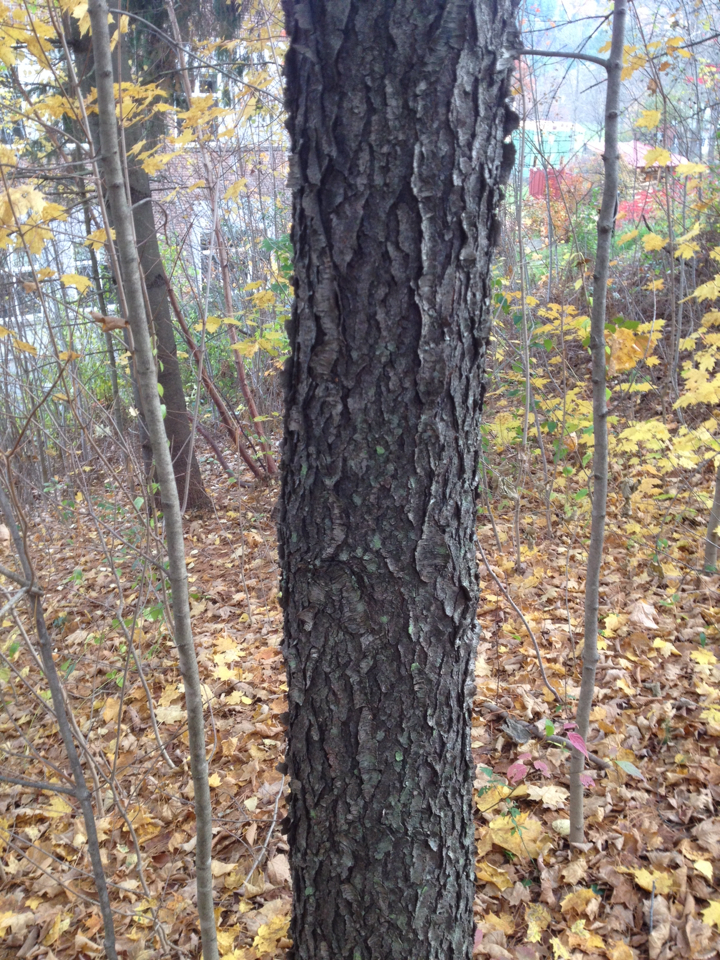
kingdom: Plantae
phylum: Tracheophyta
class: Magnoliopsida
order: Rosales
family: Rosaceae
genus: Prunus
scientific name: Prunus serotina
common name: Black cherry
